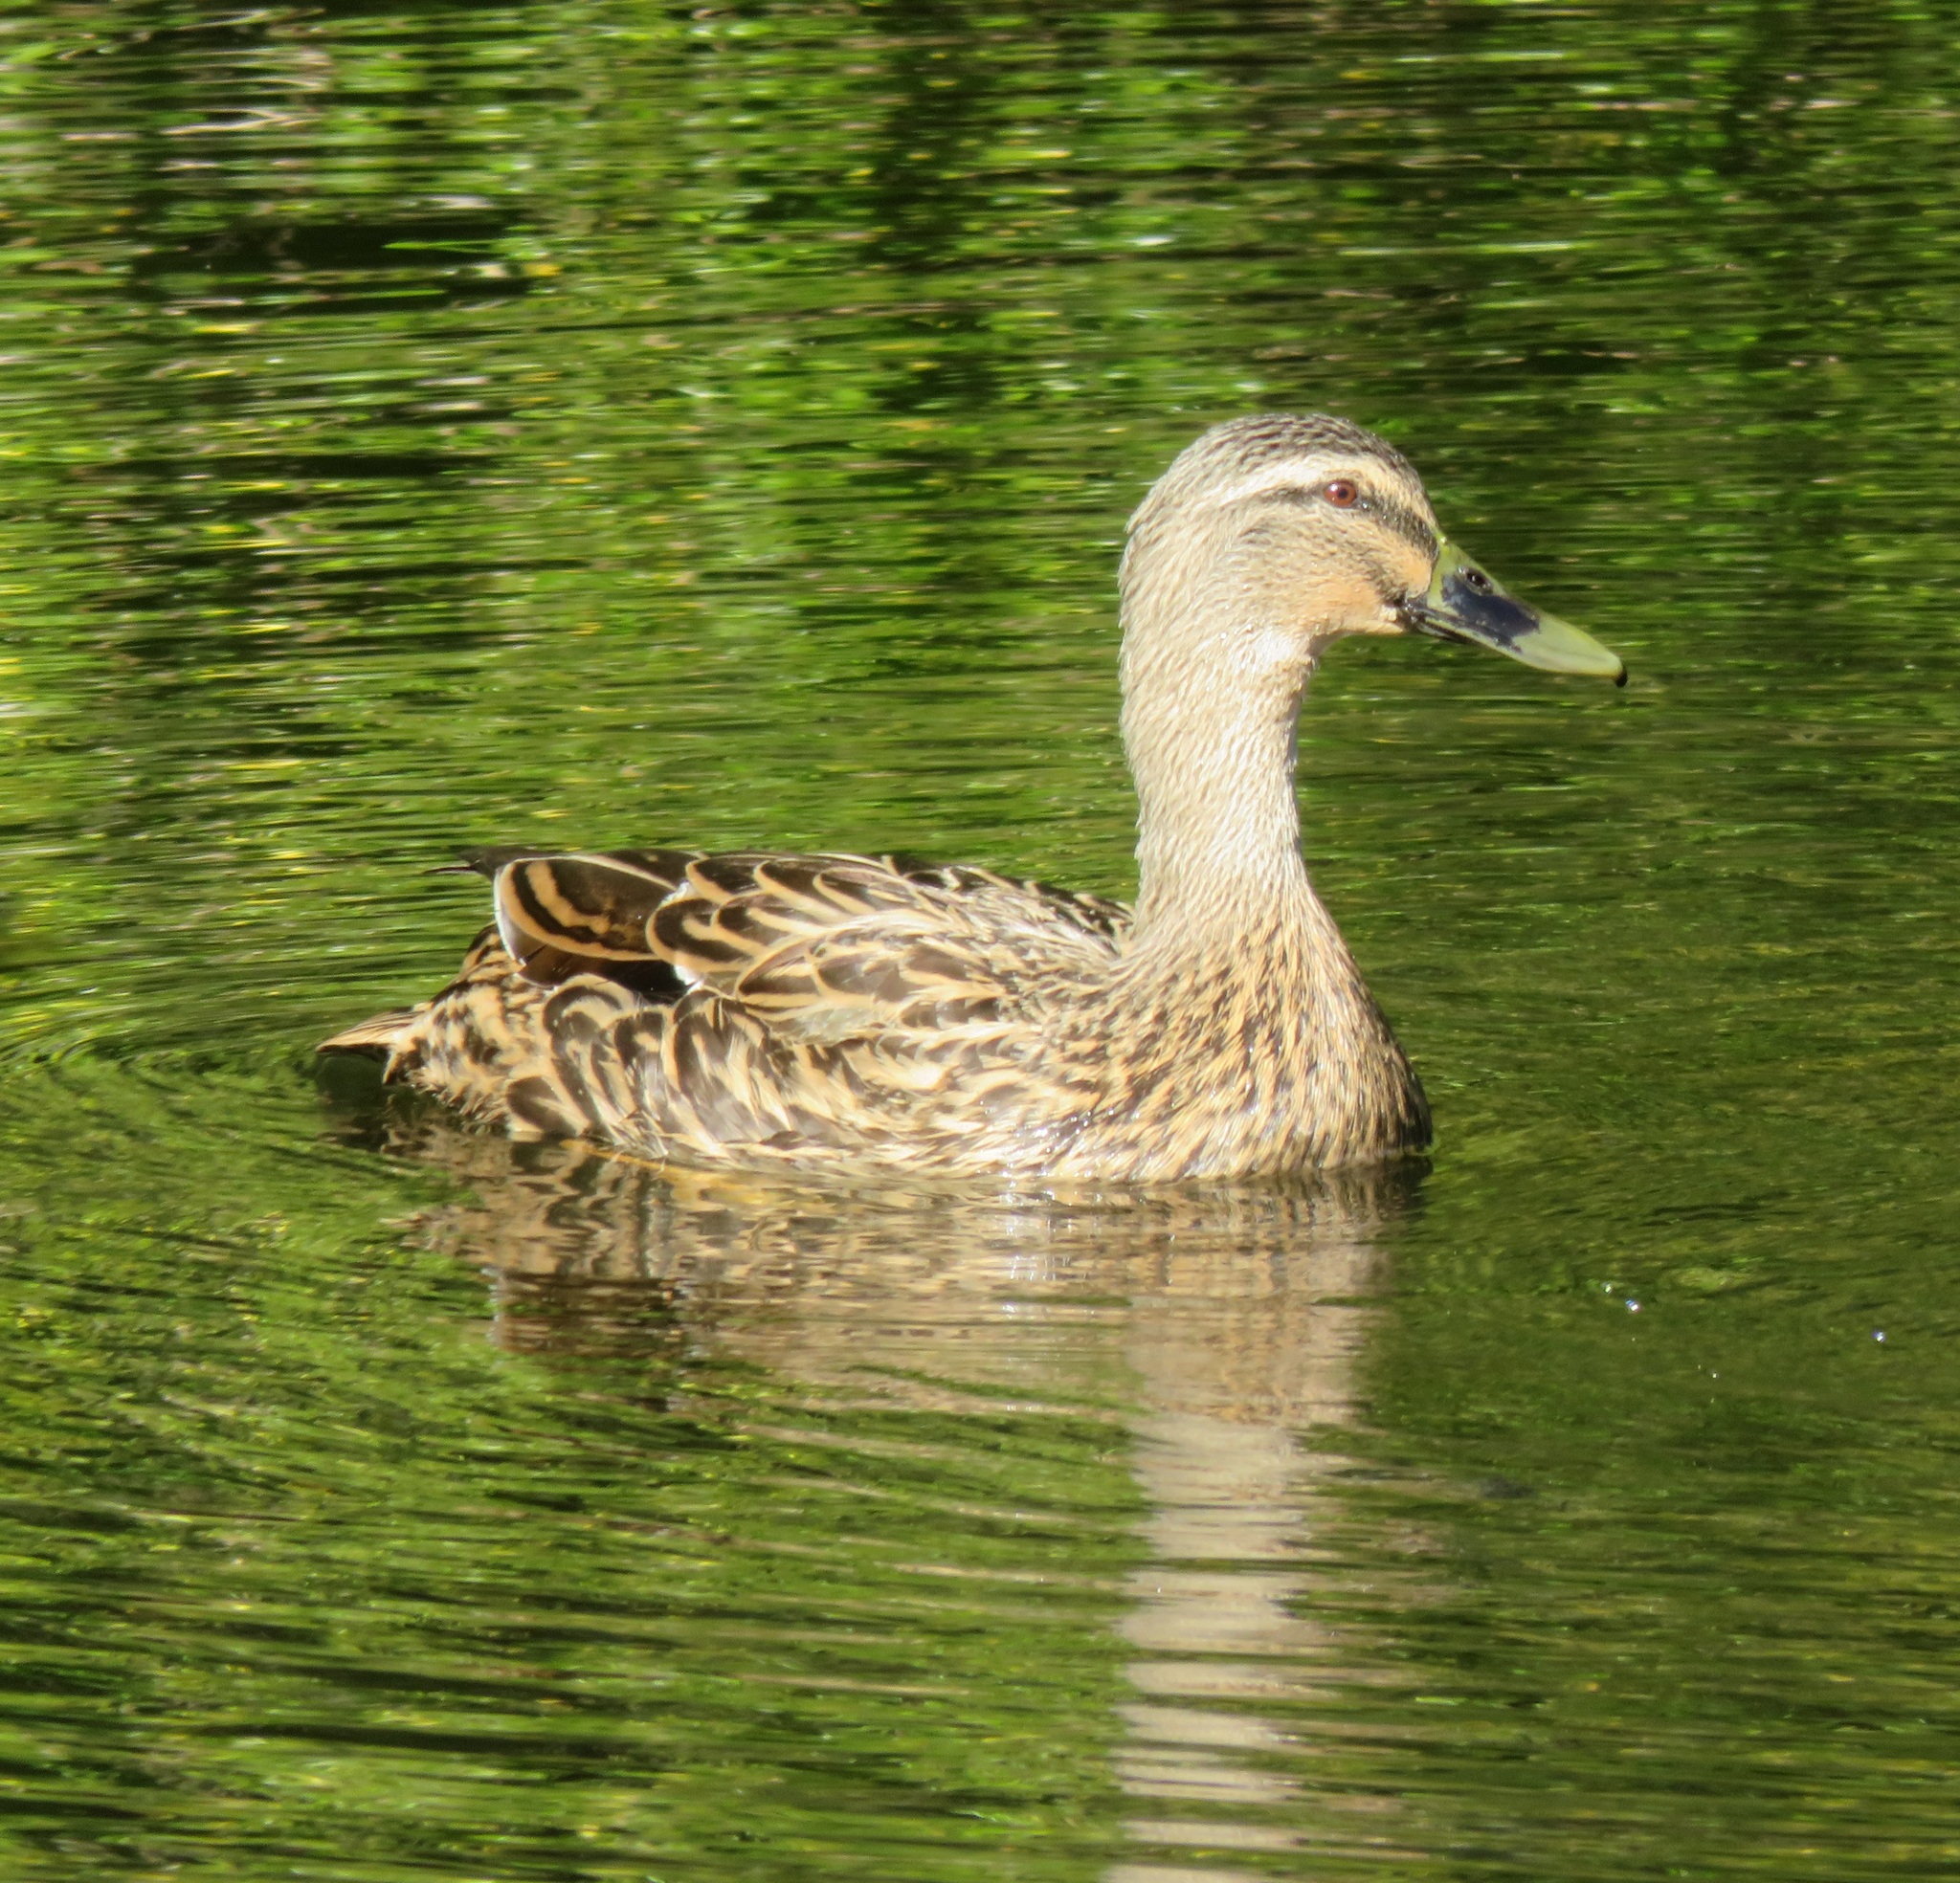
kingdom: Animalia
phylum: Chordata
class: Aves
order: Anseriformes
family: Anatidae
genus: Anas
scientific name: Anas
